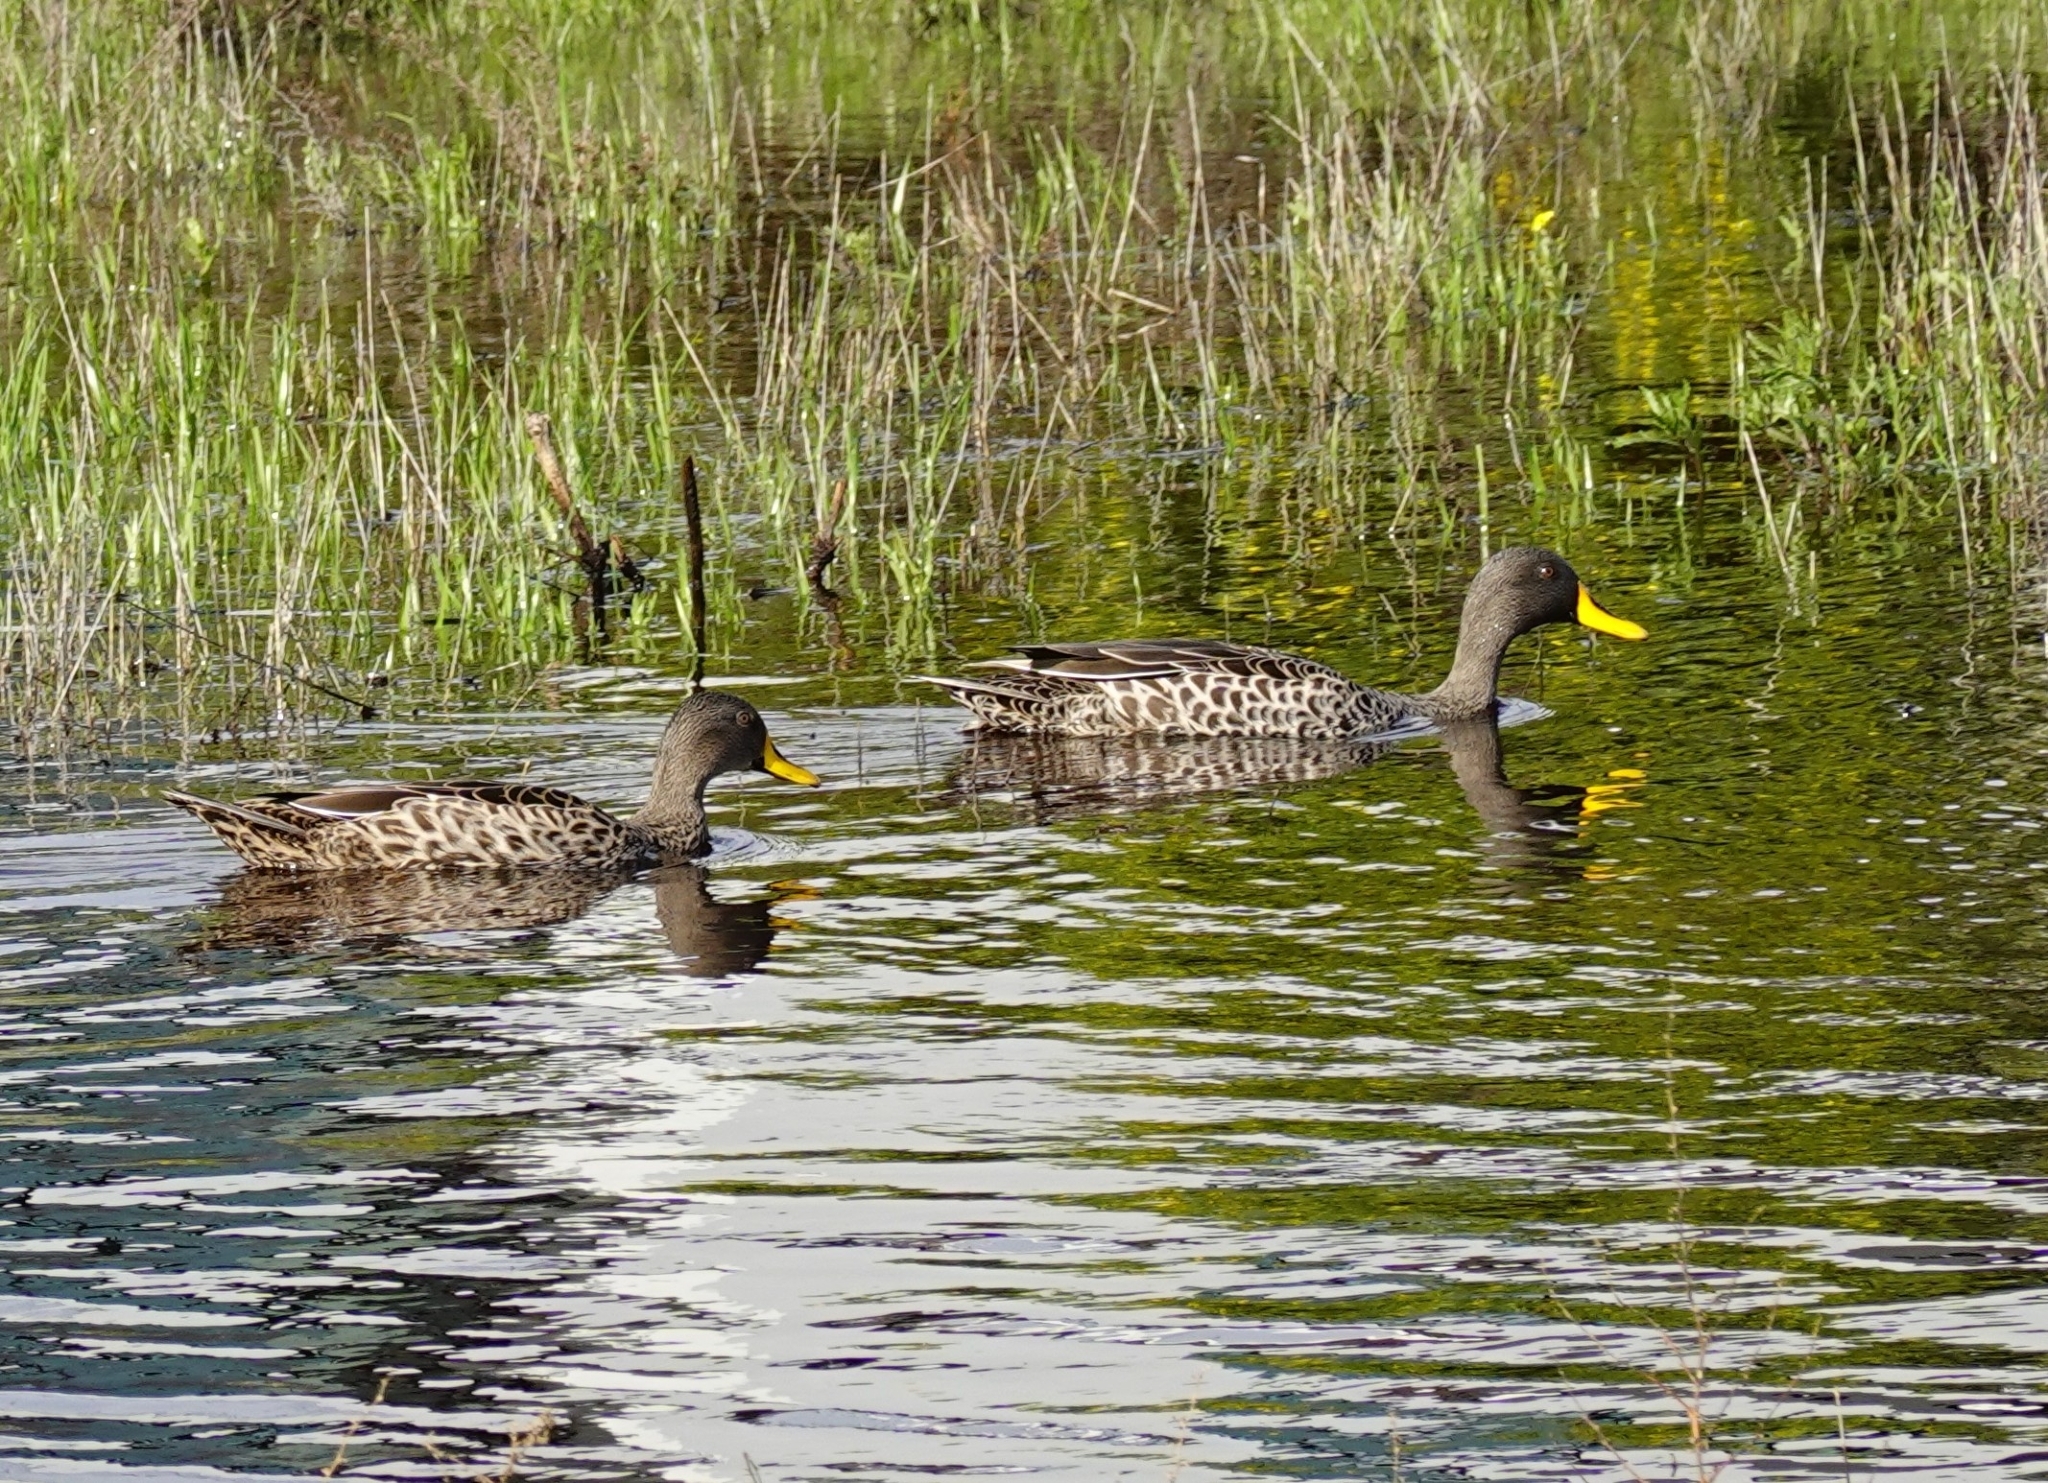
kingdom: Animalia
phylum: Chordata
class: Aves
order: Anseriformes
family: Anatidae
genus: Anas
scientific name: Anas undulata
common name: Yellow-billed duck
